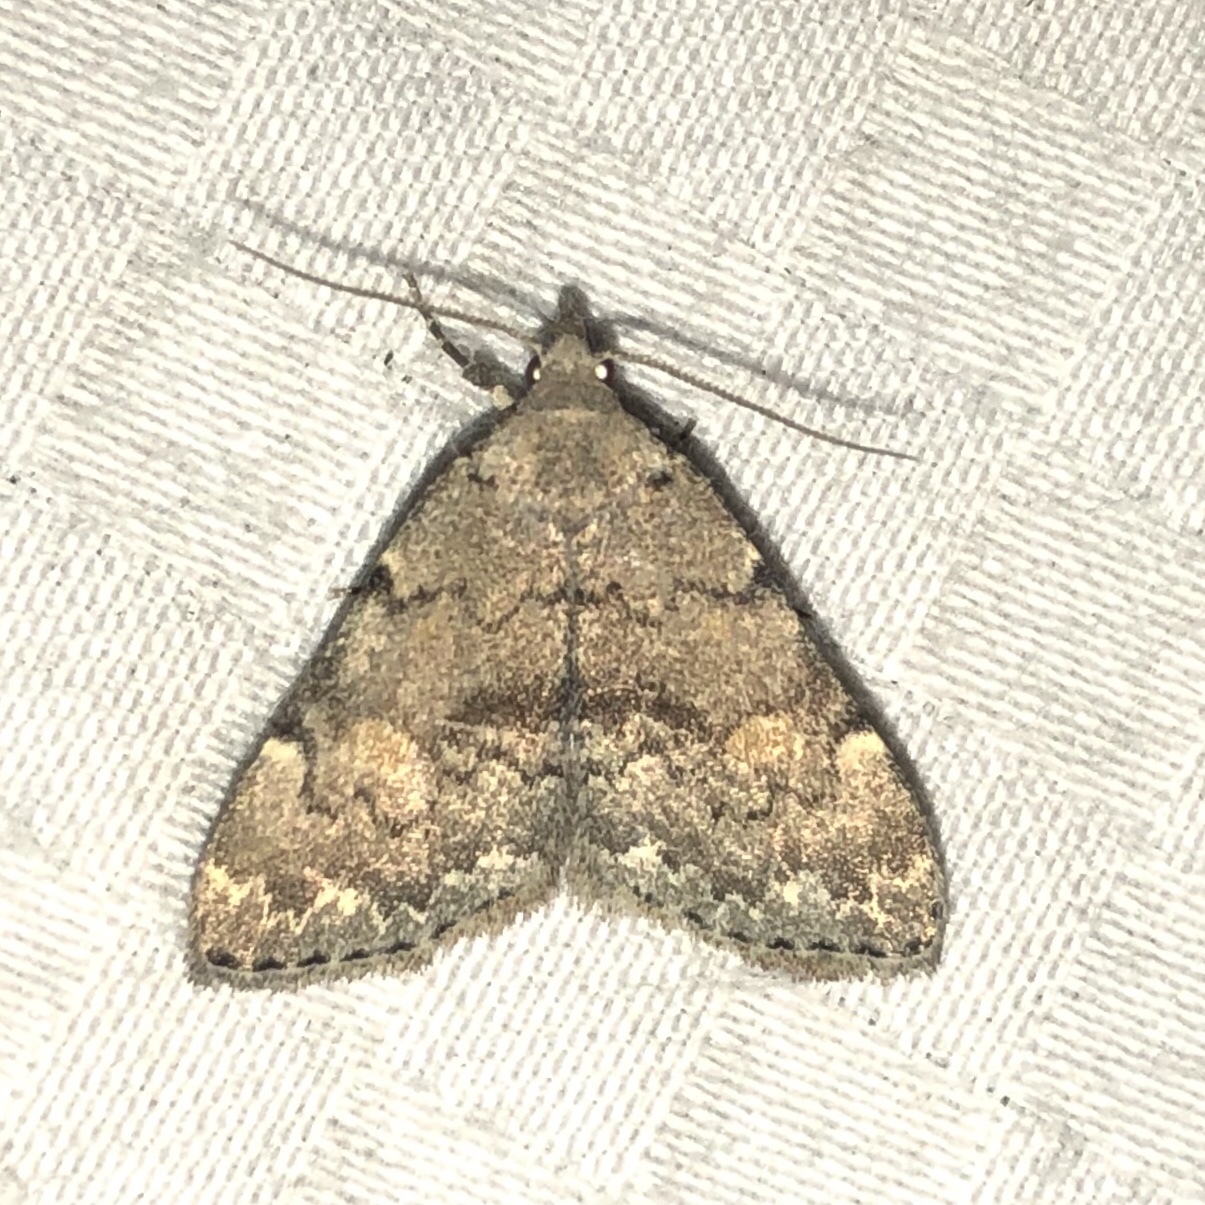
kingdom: Animalia
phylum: Arthropoda
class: Insecta
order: Lepidoptera
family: Erebidae
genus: Idia
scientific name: Idia aemula
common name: Common idia moth
